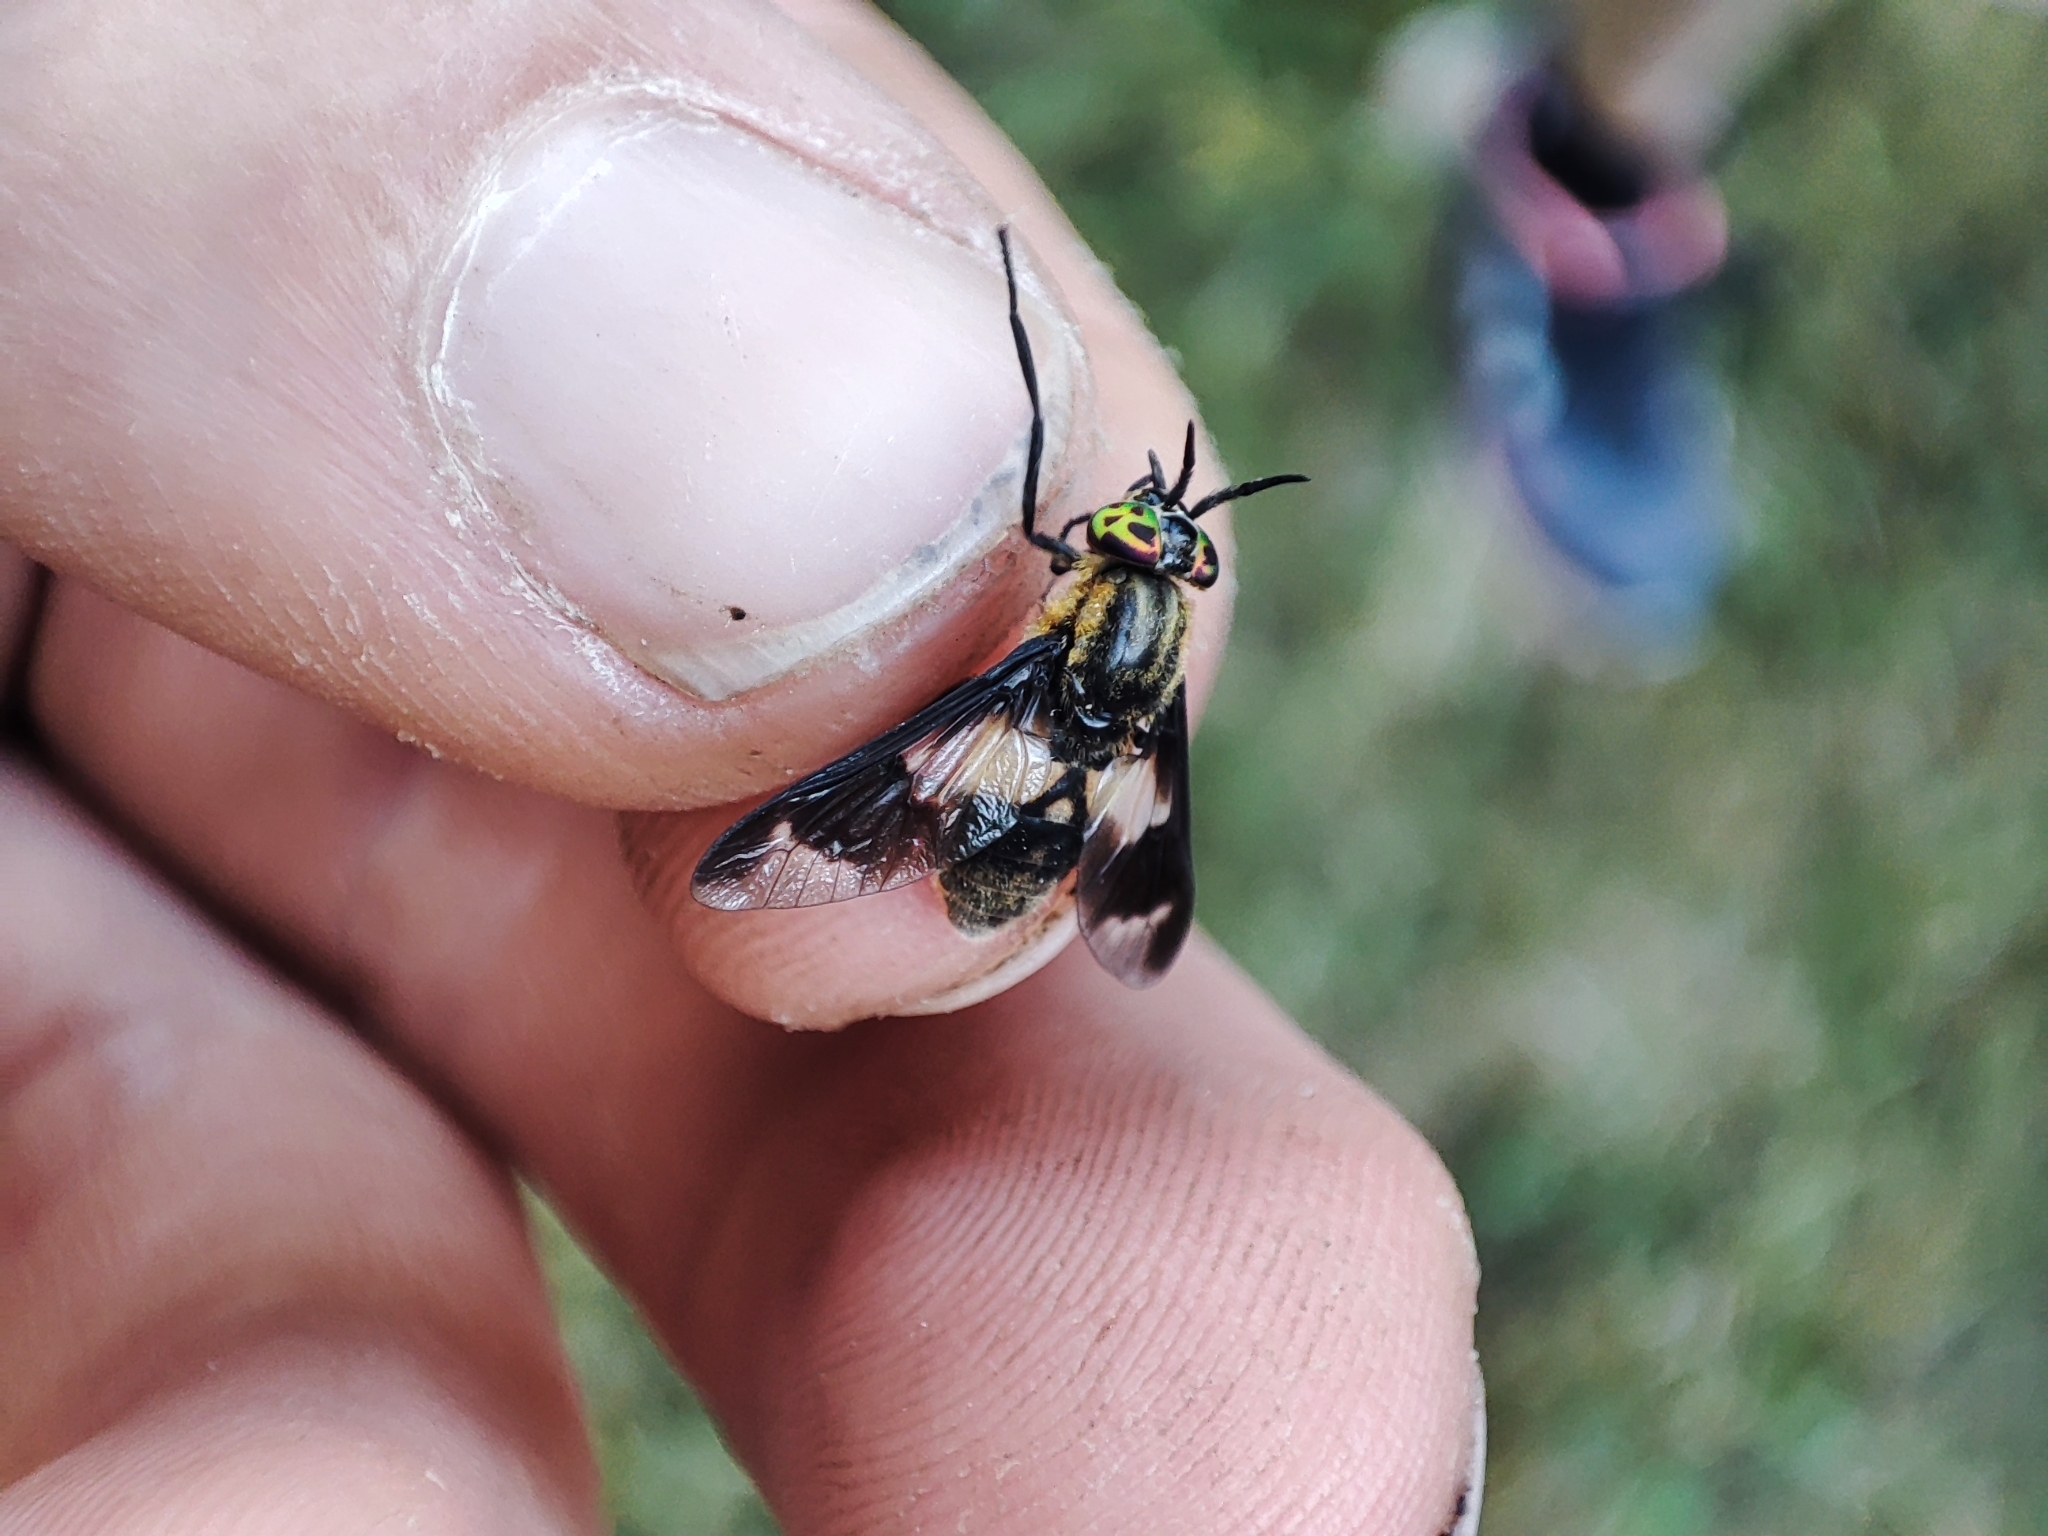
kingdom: Animalia
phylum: Arthropoda
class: Insecta
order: Diptera
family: Tabanidae
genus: Chrysops
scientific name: Chrysops caecutiens
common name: Splayed deerfly
